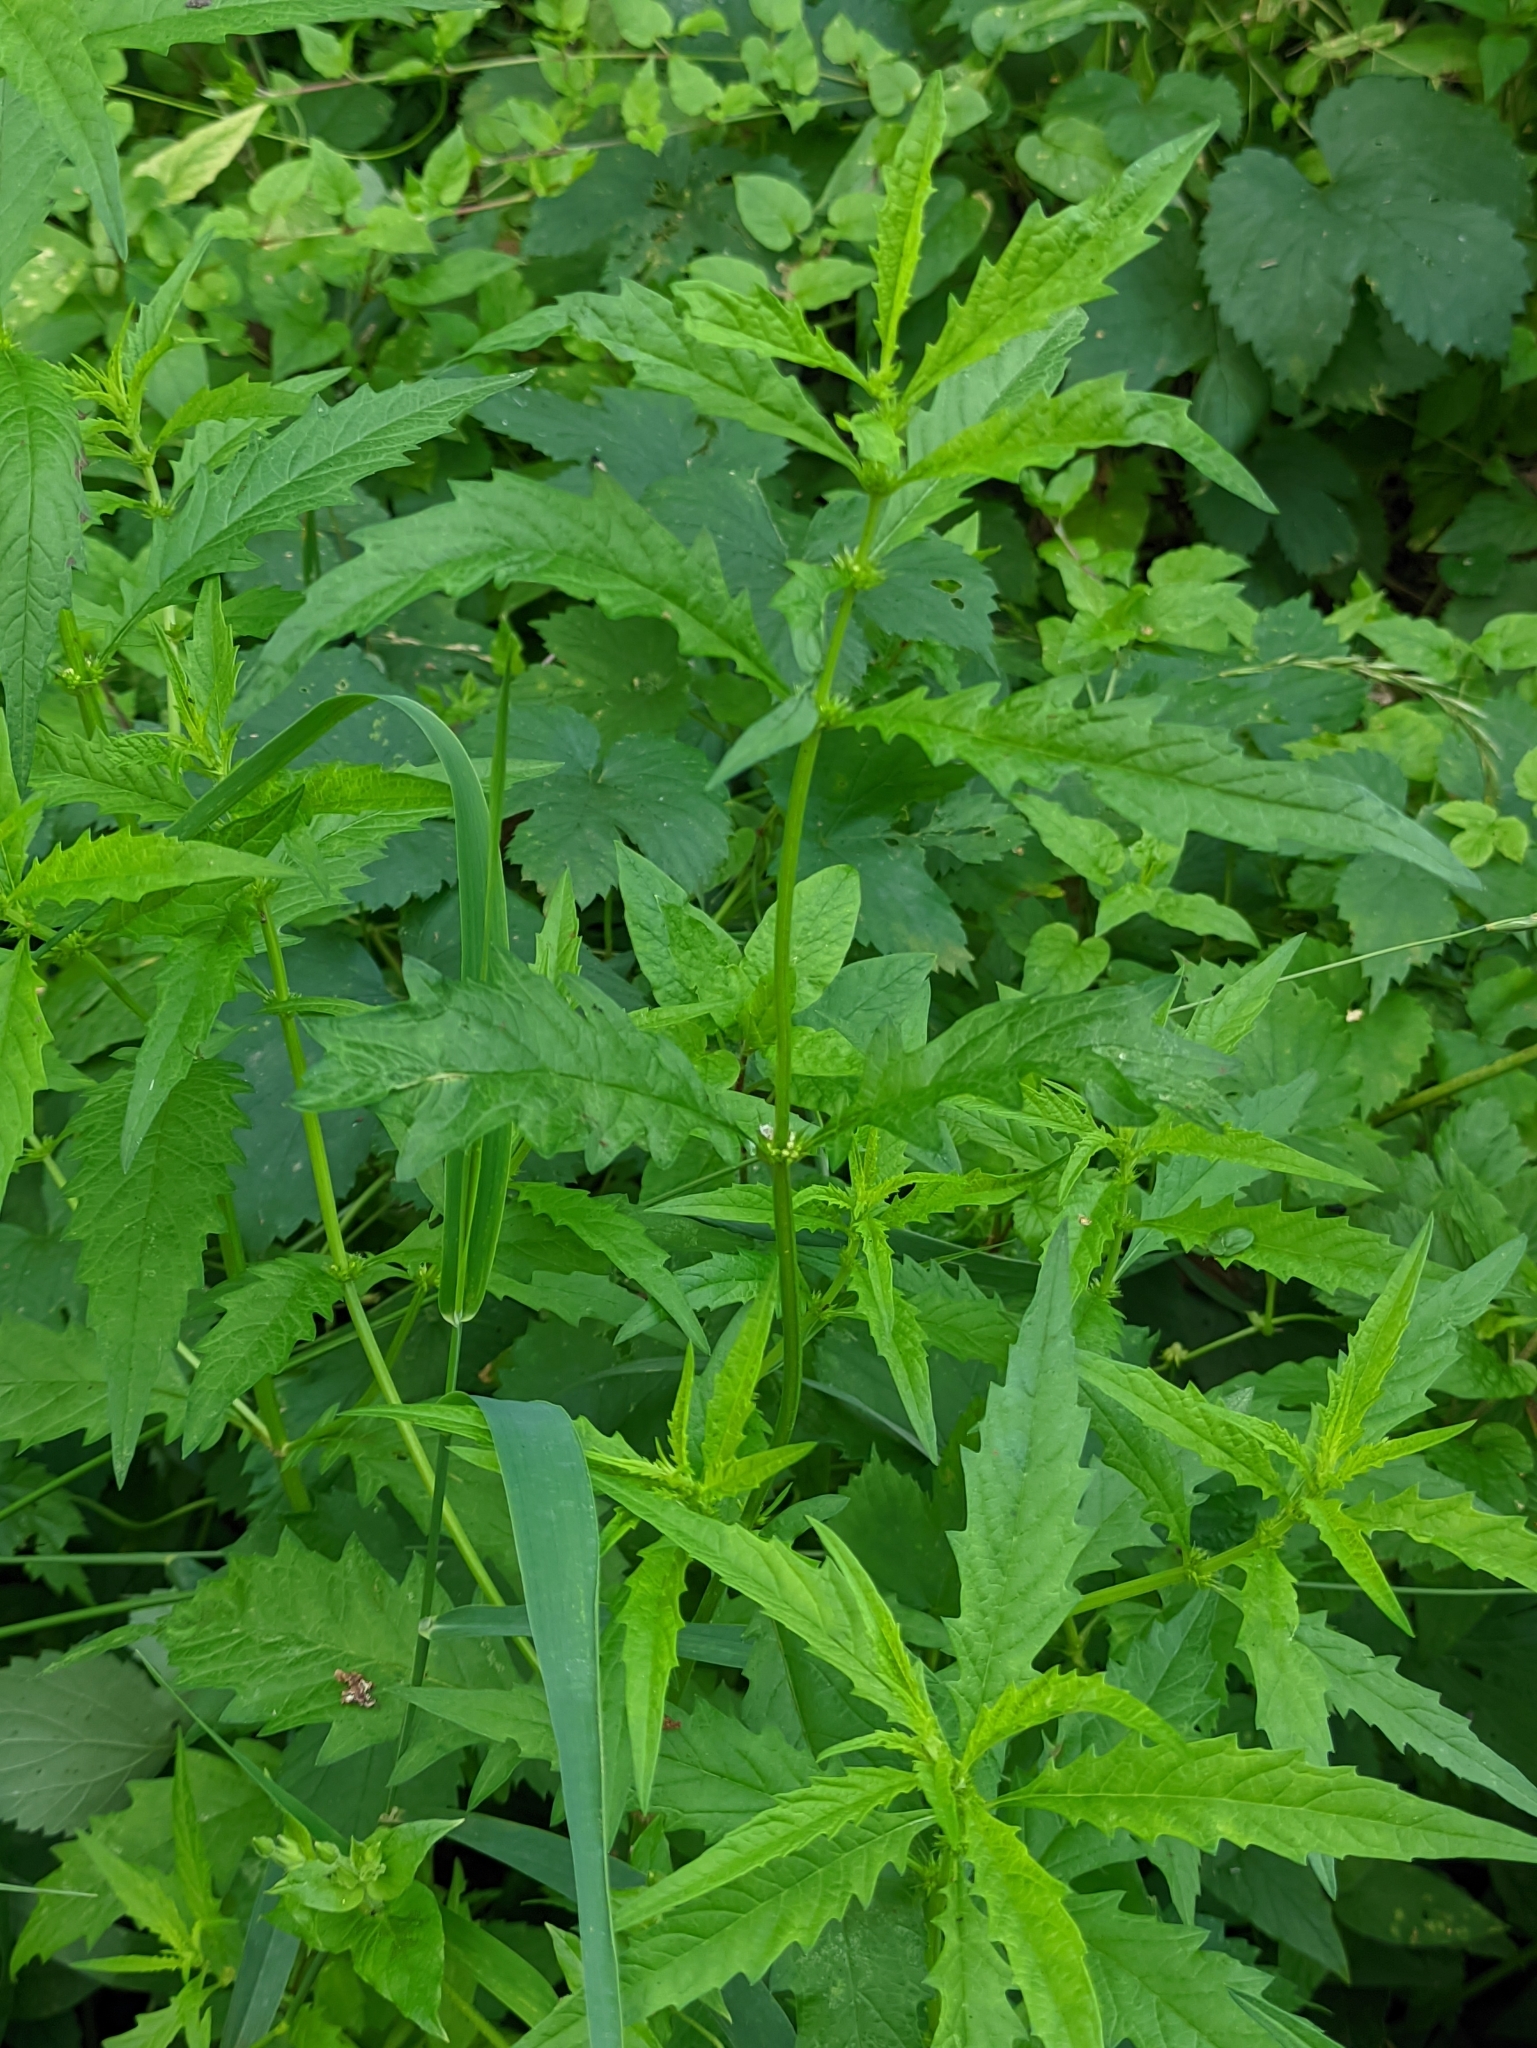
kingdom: Plantae
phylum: Tracheophyta
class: Magnoliopsida
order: Lamiales
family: Lamiaceae
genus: Lycopus
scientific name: Lycopus europaeus
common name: European bugleweed
